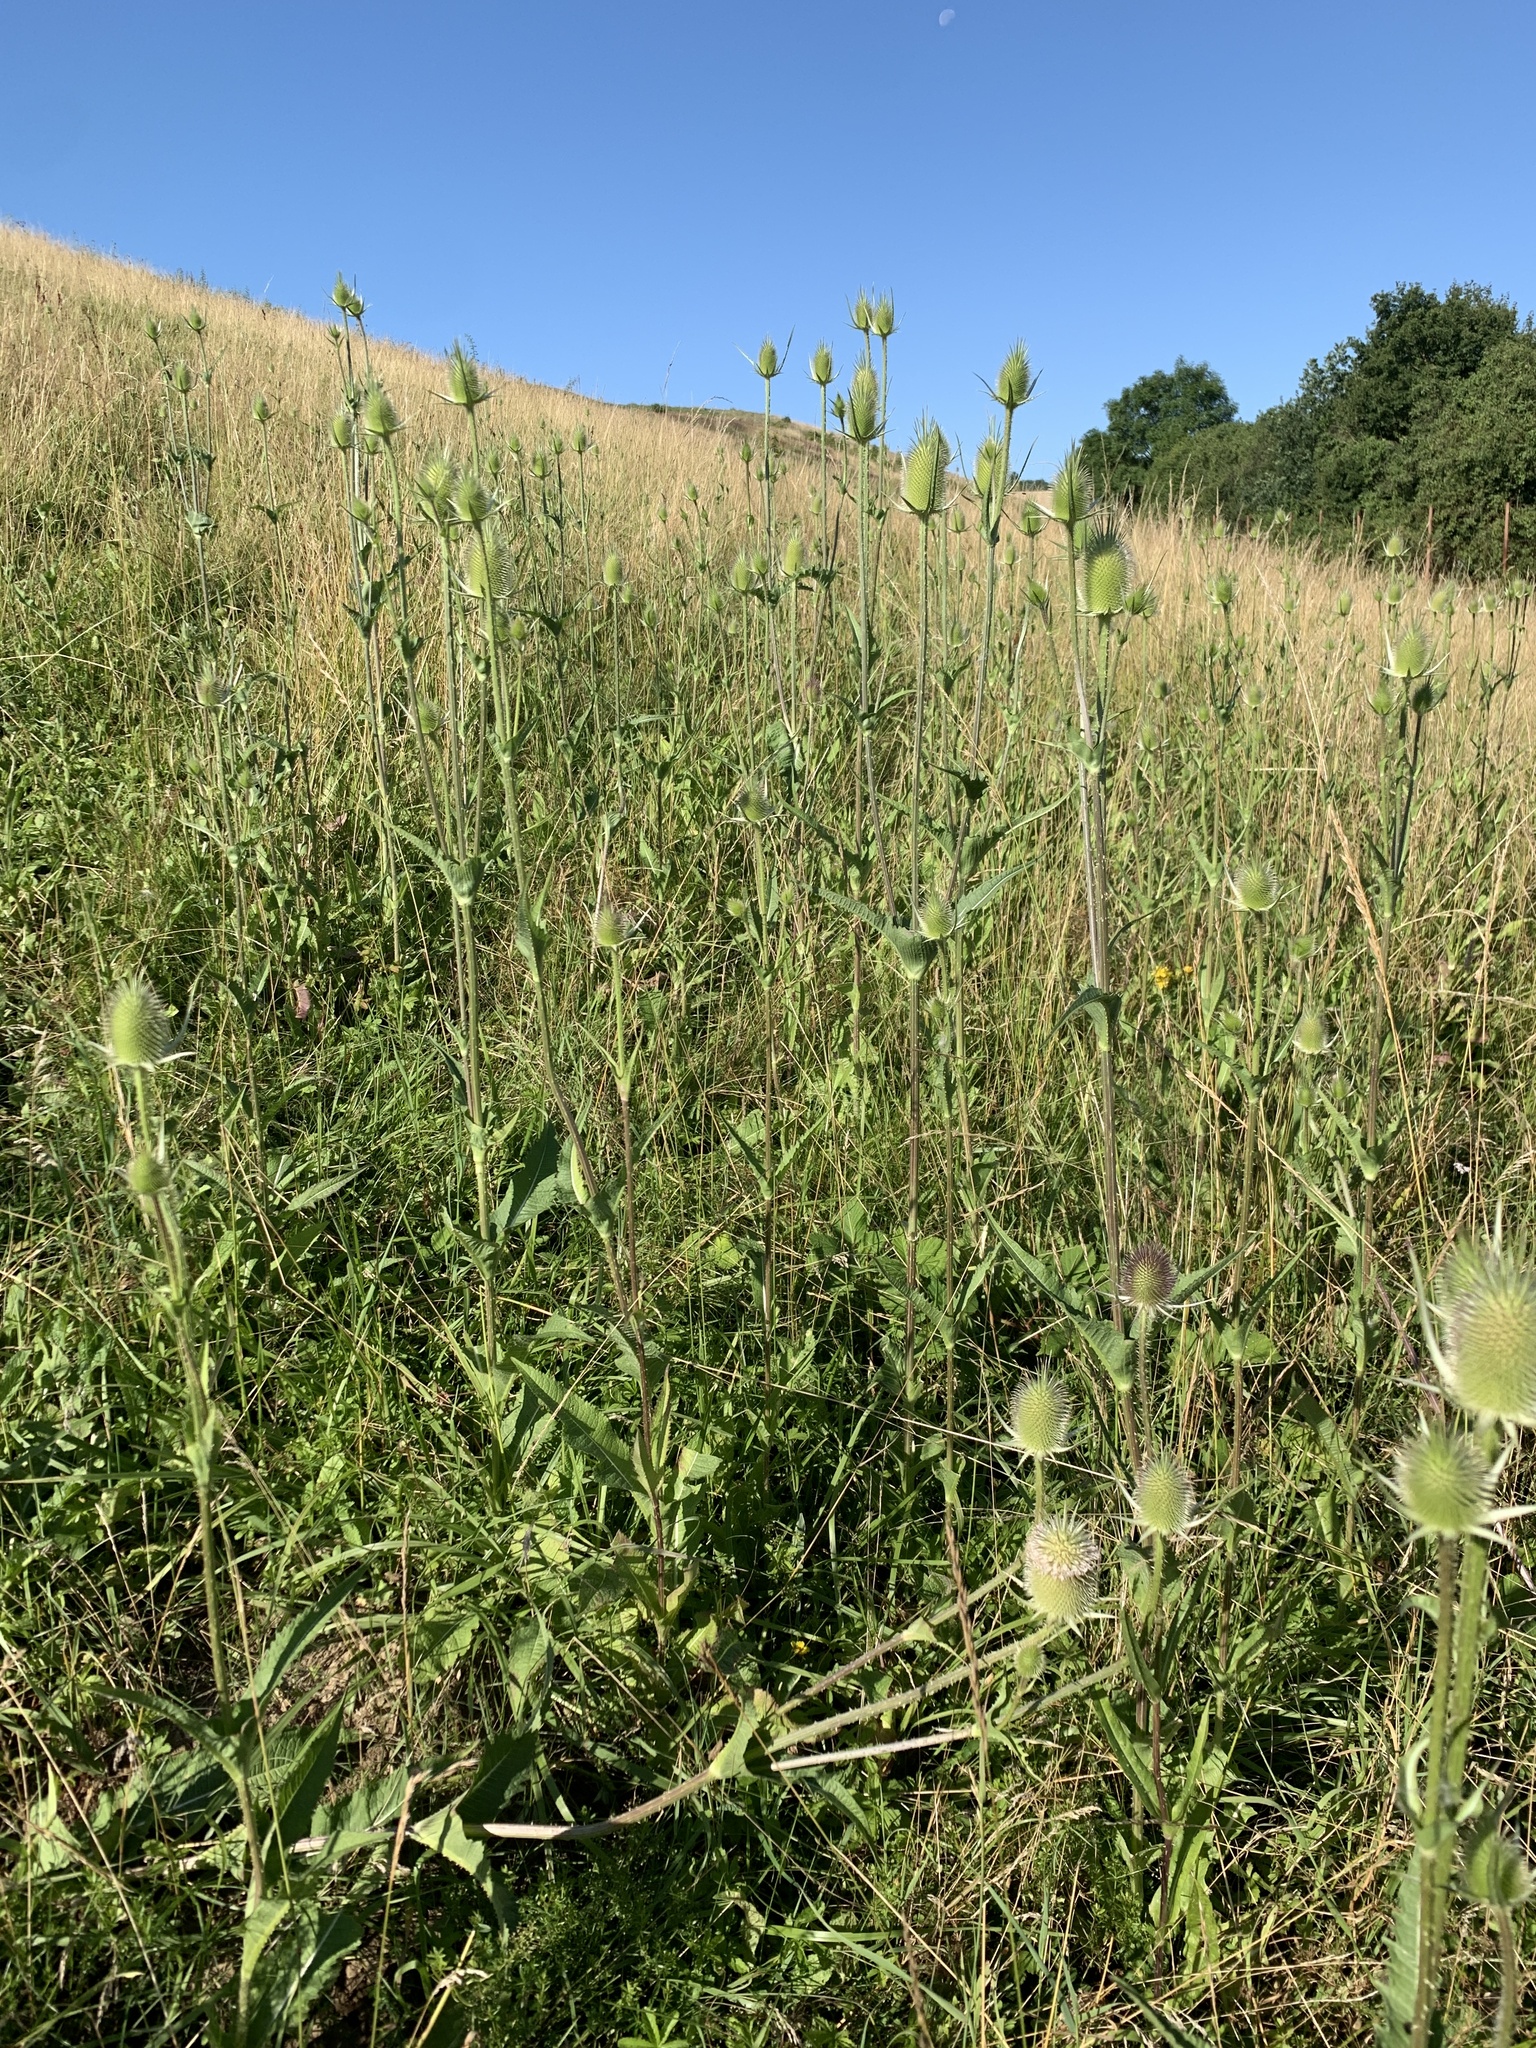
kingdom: Plantae
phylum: Tracheophyta
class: Magnoliopsida
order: Dipsacales
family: Caprifoliaceae
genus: Dipsacus
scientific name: Dipsacus laciniatus
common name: Cut-leaved teasel
